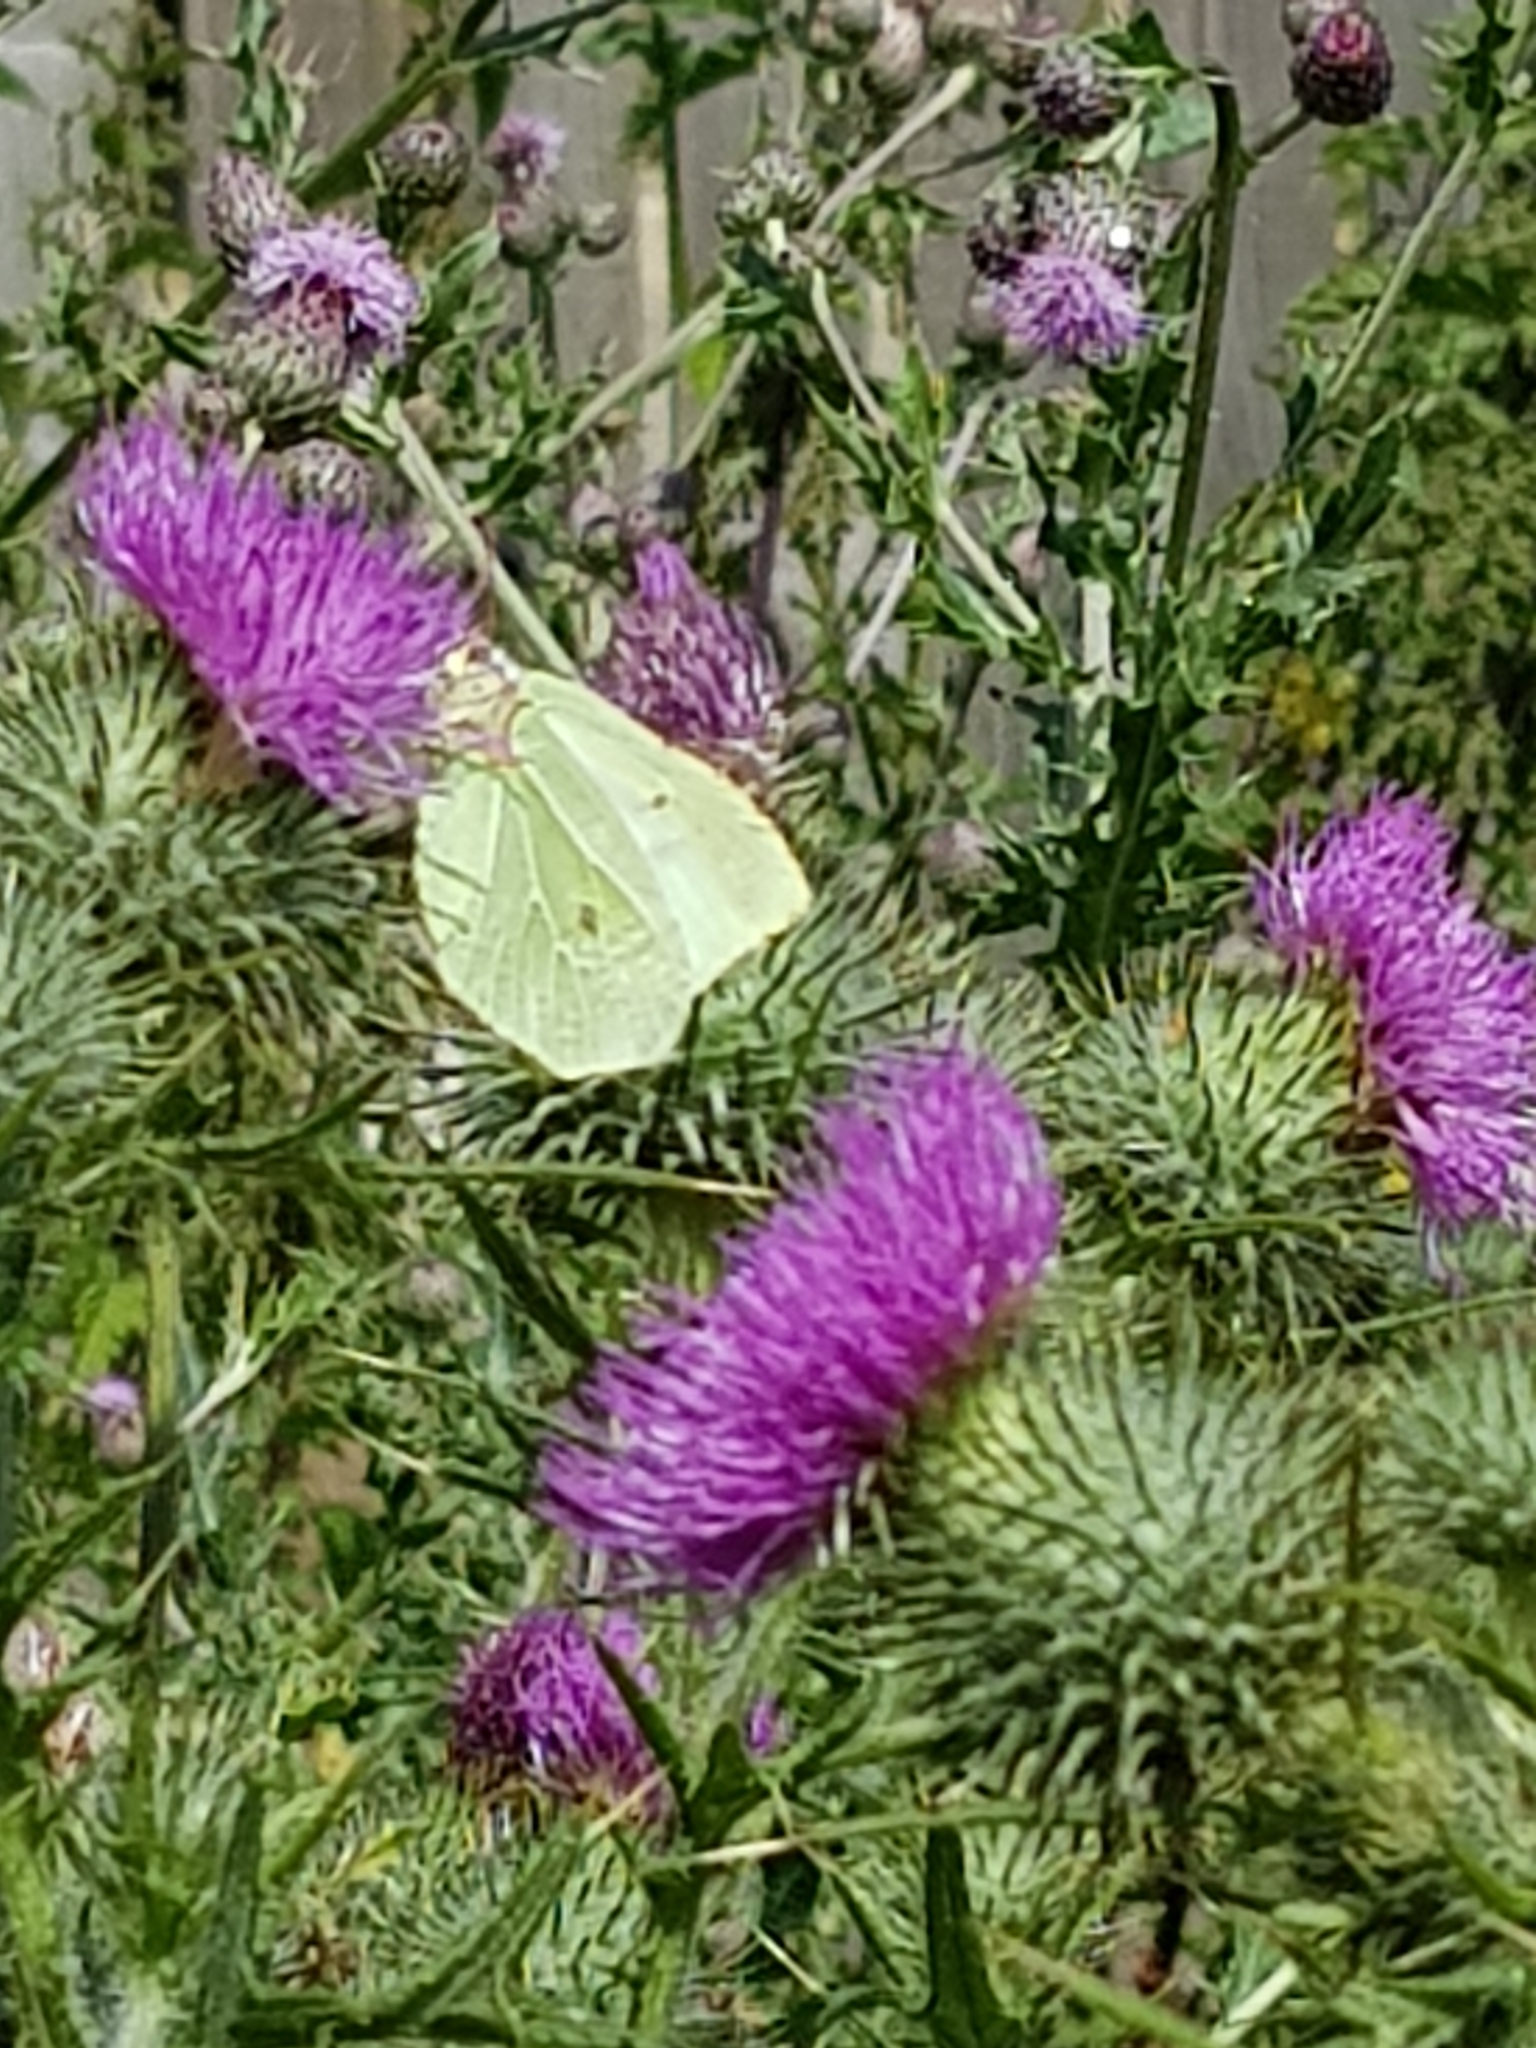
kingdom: Animalia
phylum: Arthropoda
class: Insecta
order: Lepidoptera
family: Pieridae
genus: Gonepteryx
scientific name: Gonepteryx rhamni
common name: Brimstone
